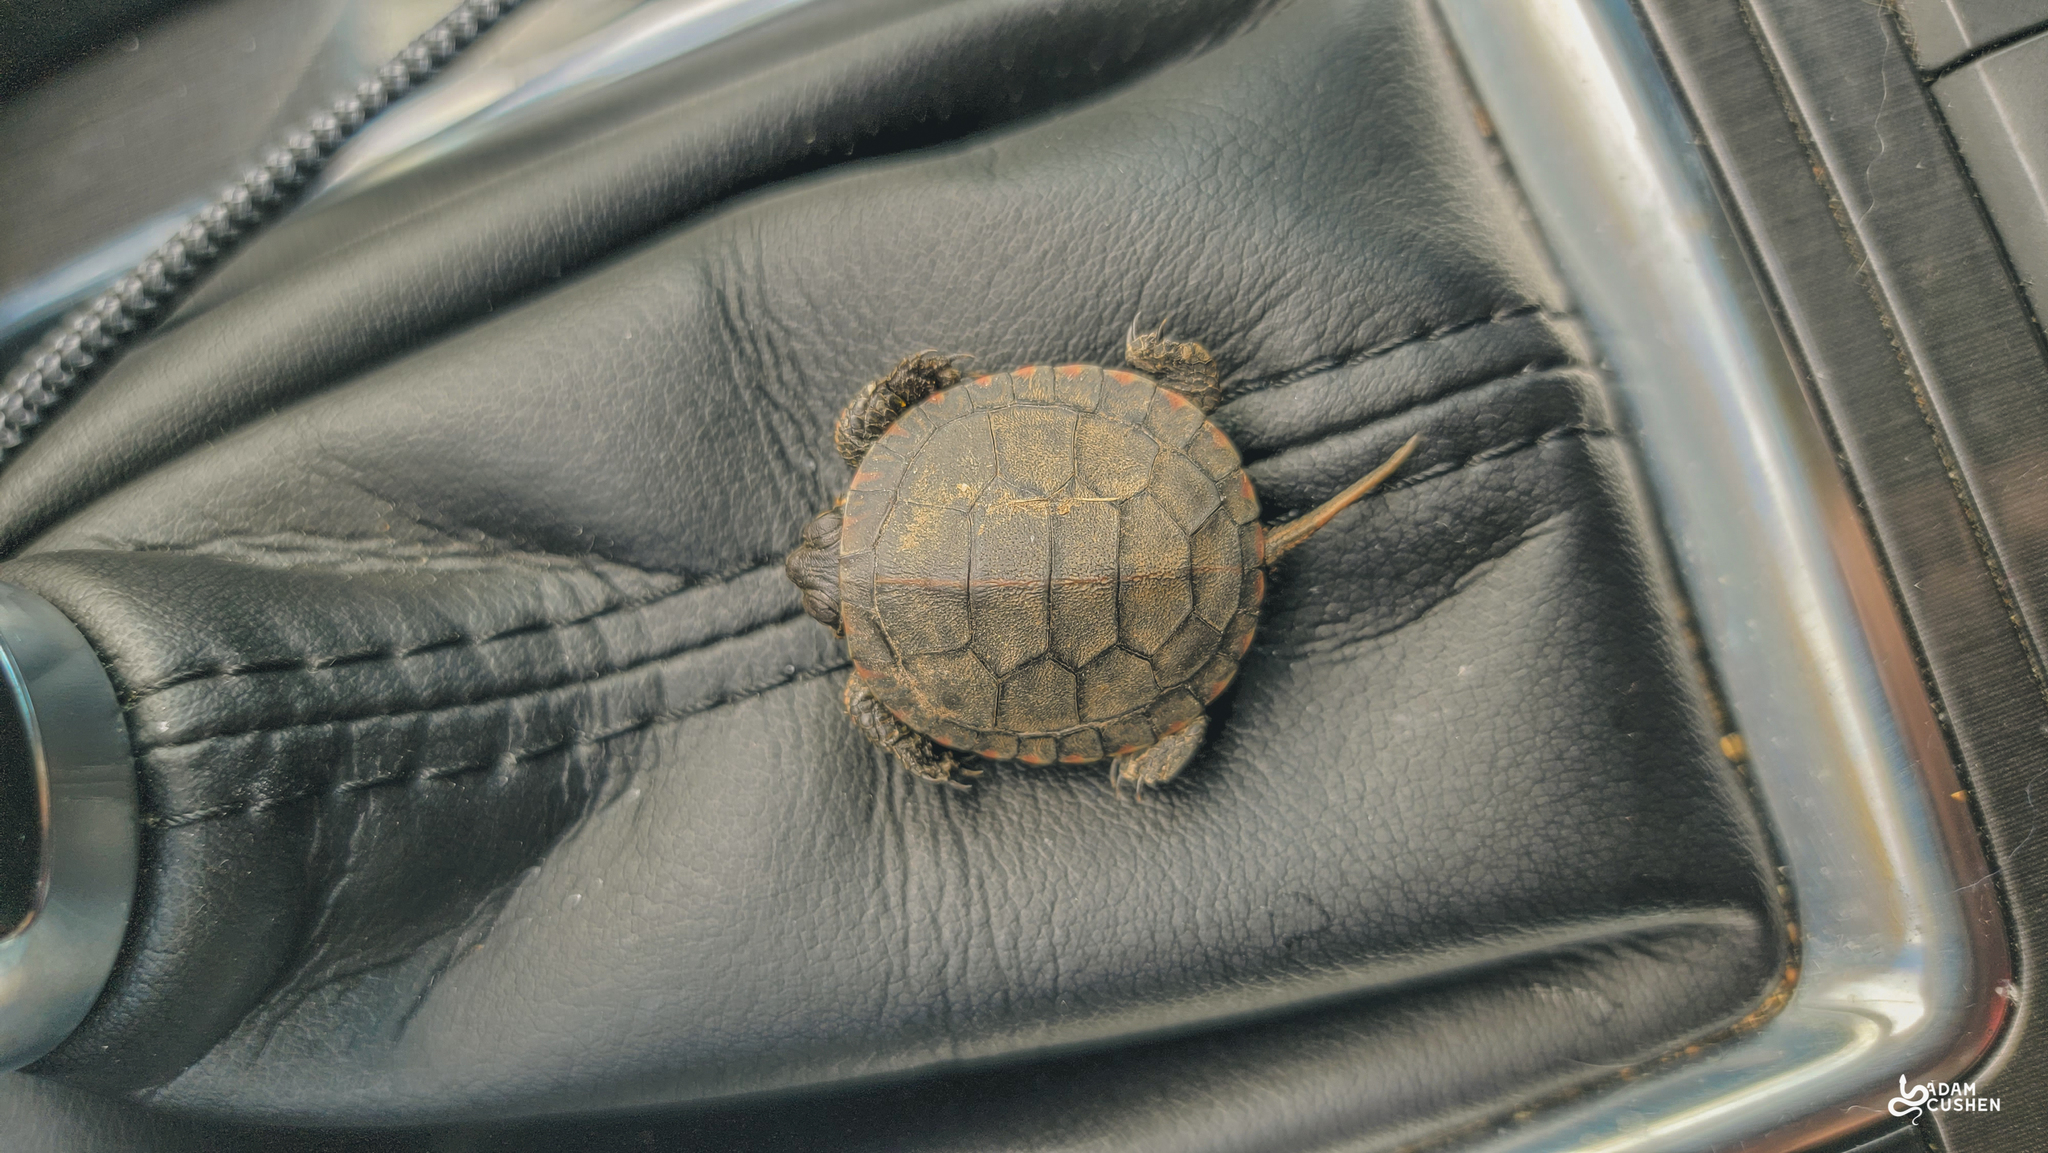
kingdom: Animalia
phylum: Chordata
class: Testudines
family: Emydidae
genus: Chrysemys
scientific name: Chrysemys picta
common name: Painted turtle
